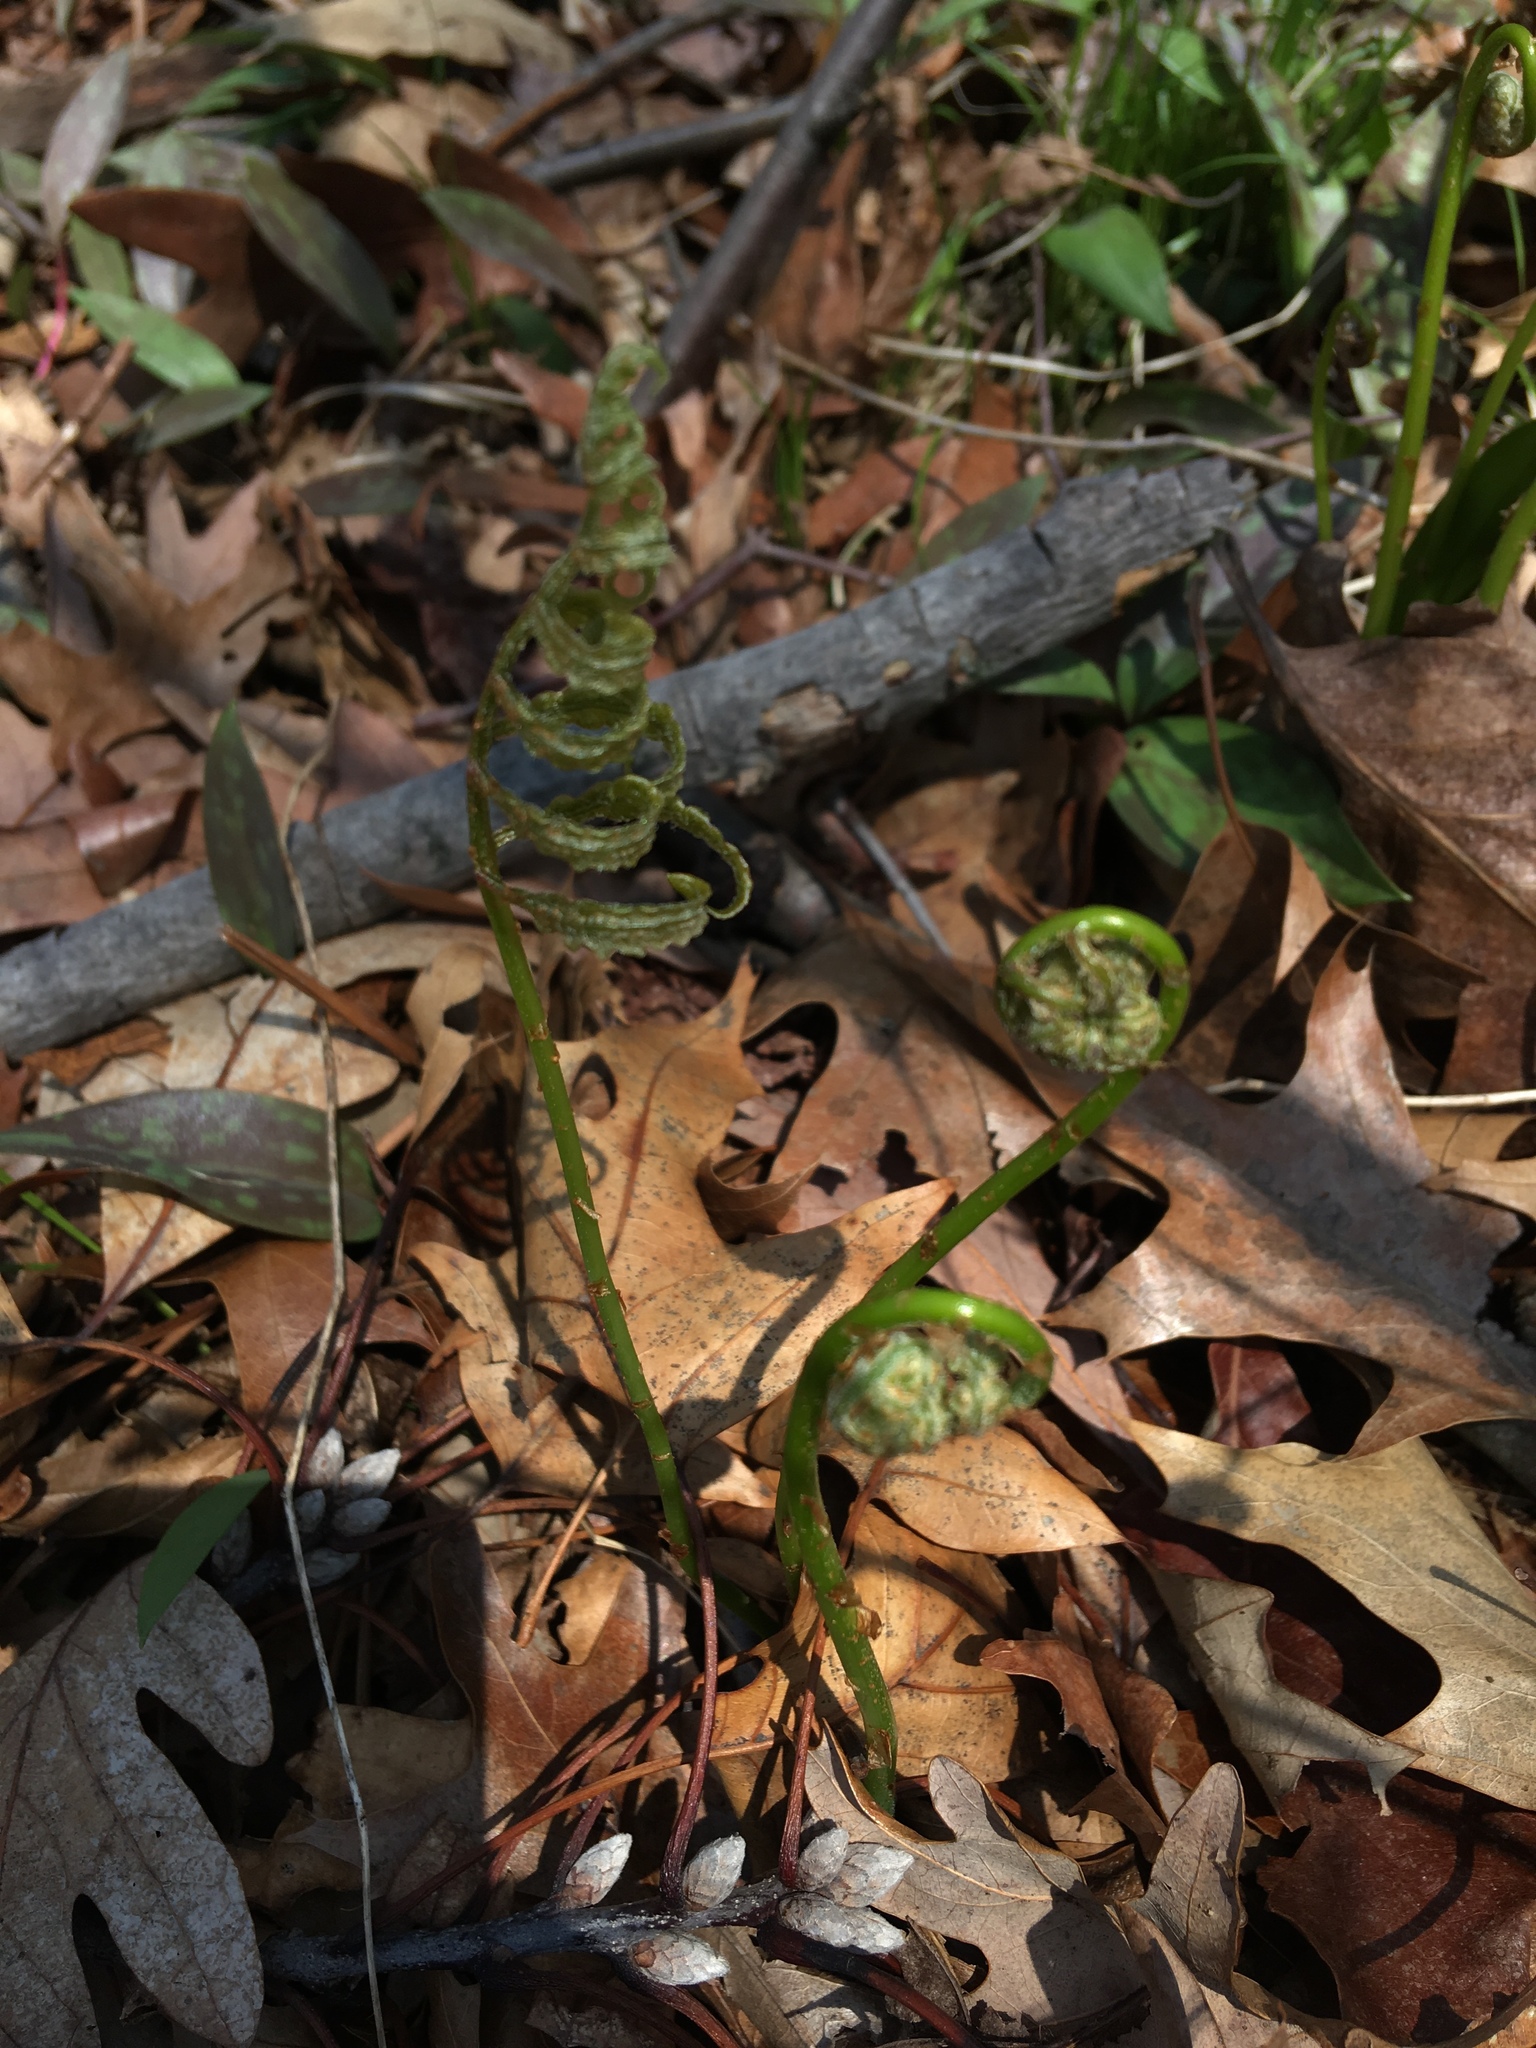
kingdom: Plantae
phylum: Tracheophyta
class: Polypodiopsida
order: Polypodiales
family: Onocleaceae
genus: Onoclea
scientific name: Onoclea sensibilis
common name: Sensitive fern
